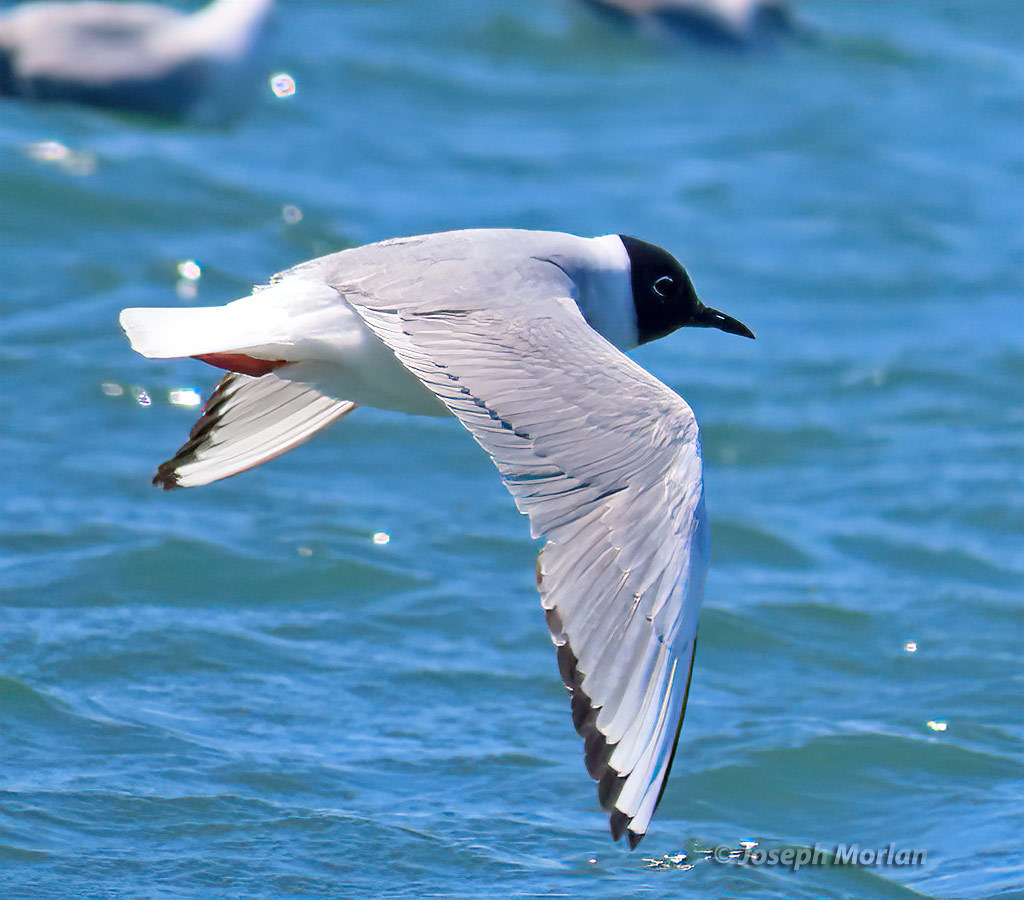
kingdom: Animalia
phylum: Chordata
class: Aves
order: Charadriiformes
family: Laridae
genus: Chroicocephalus
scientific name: Chroicocephalus philadelphia
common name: Bonaparte's gull
